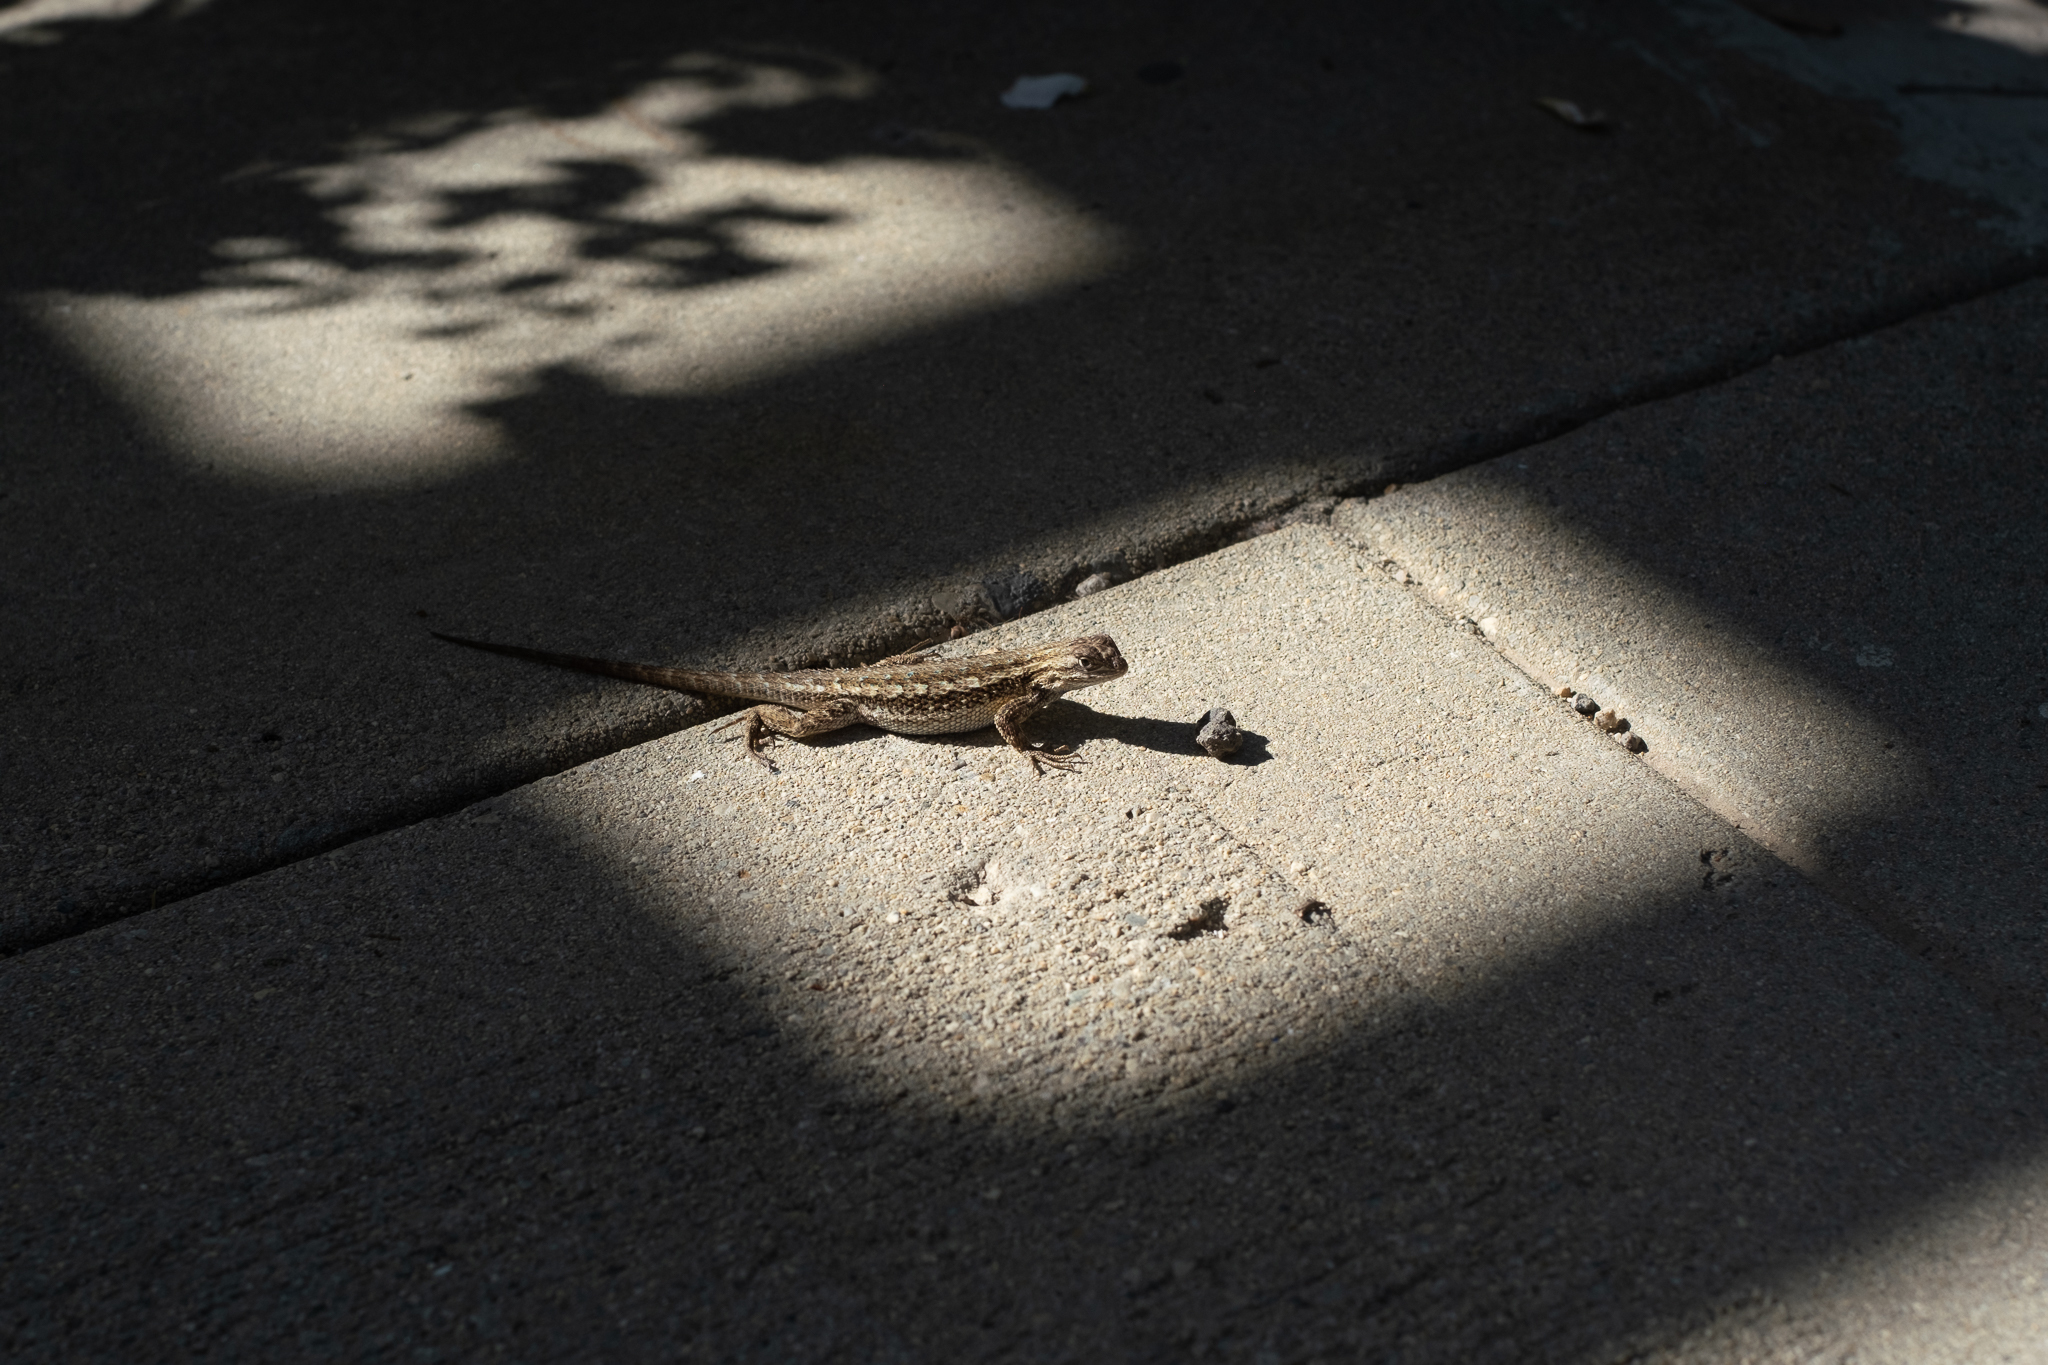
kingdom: Animalia
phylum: Chordata
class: Squamata
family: Phrynosomatidae
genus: Sceloporus
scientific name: Sceloporus occidentalis
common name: Western fence lizard
